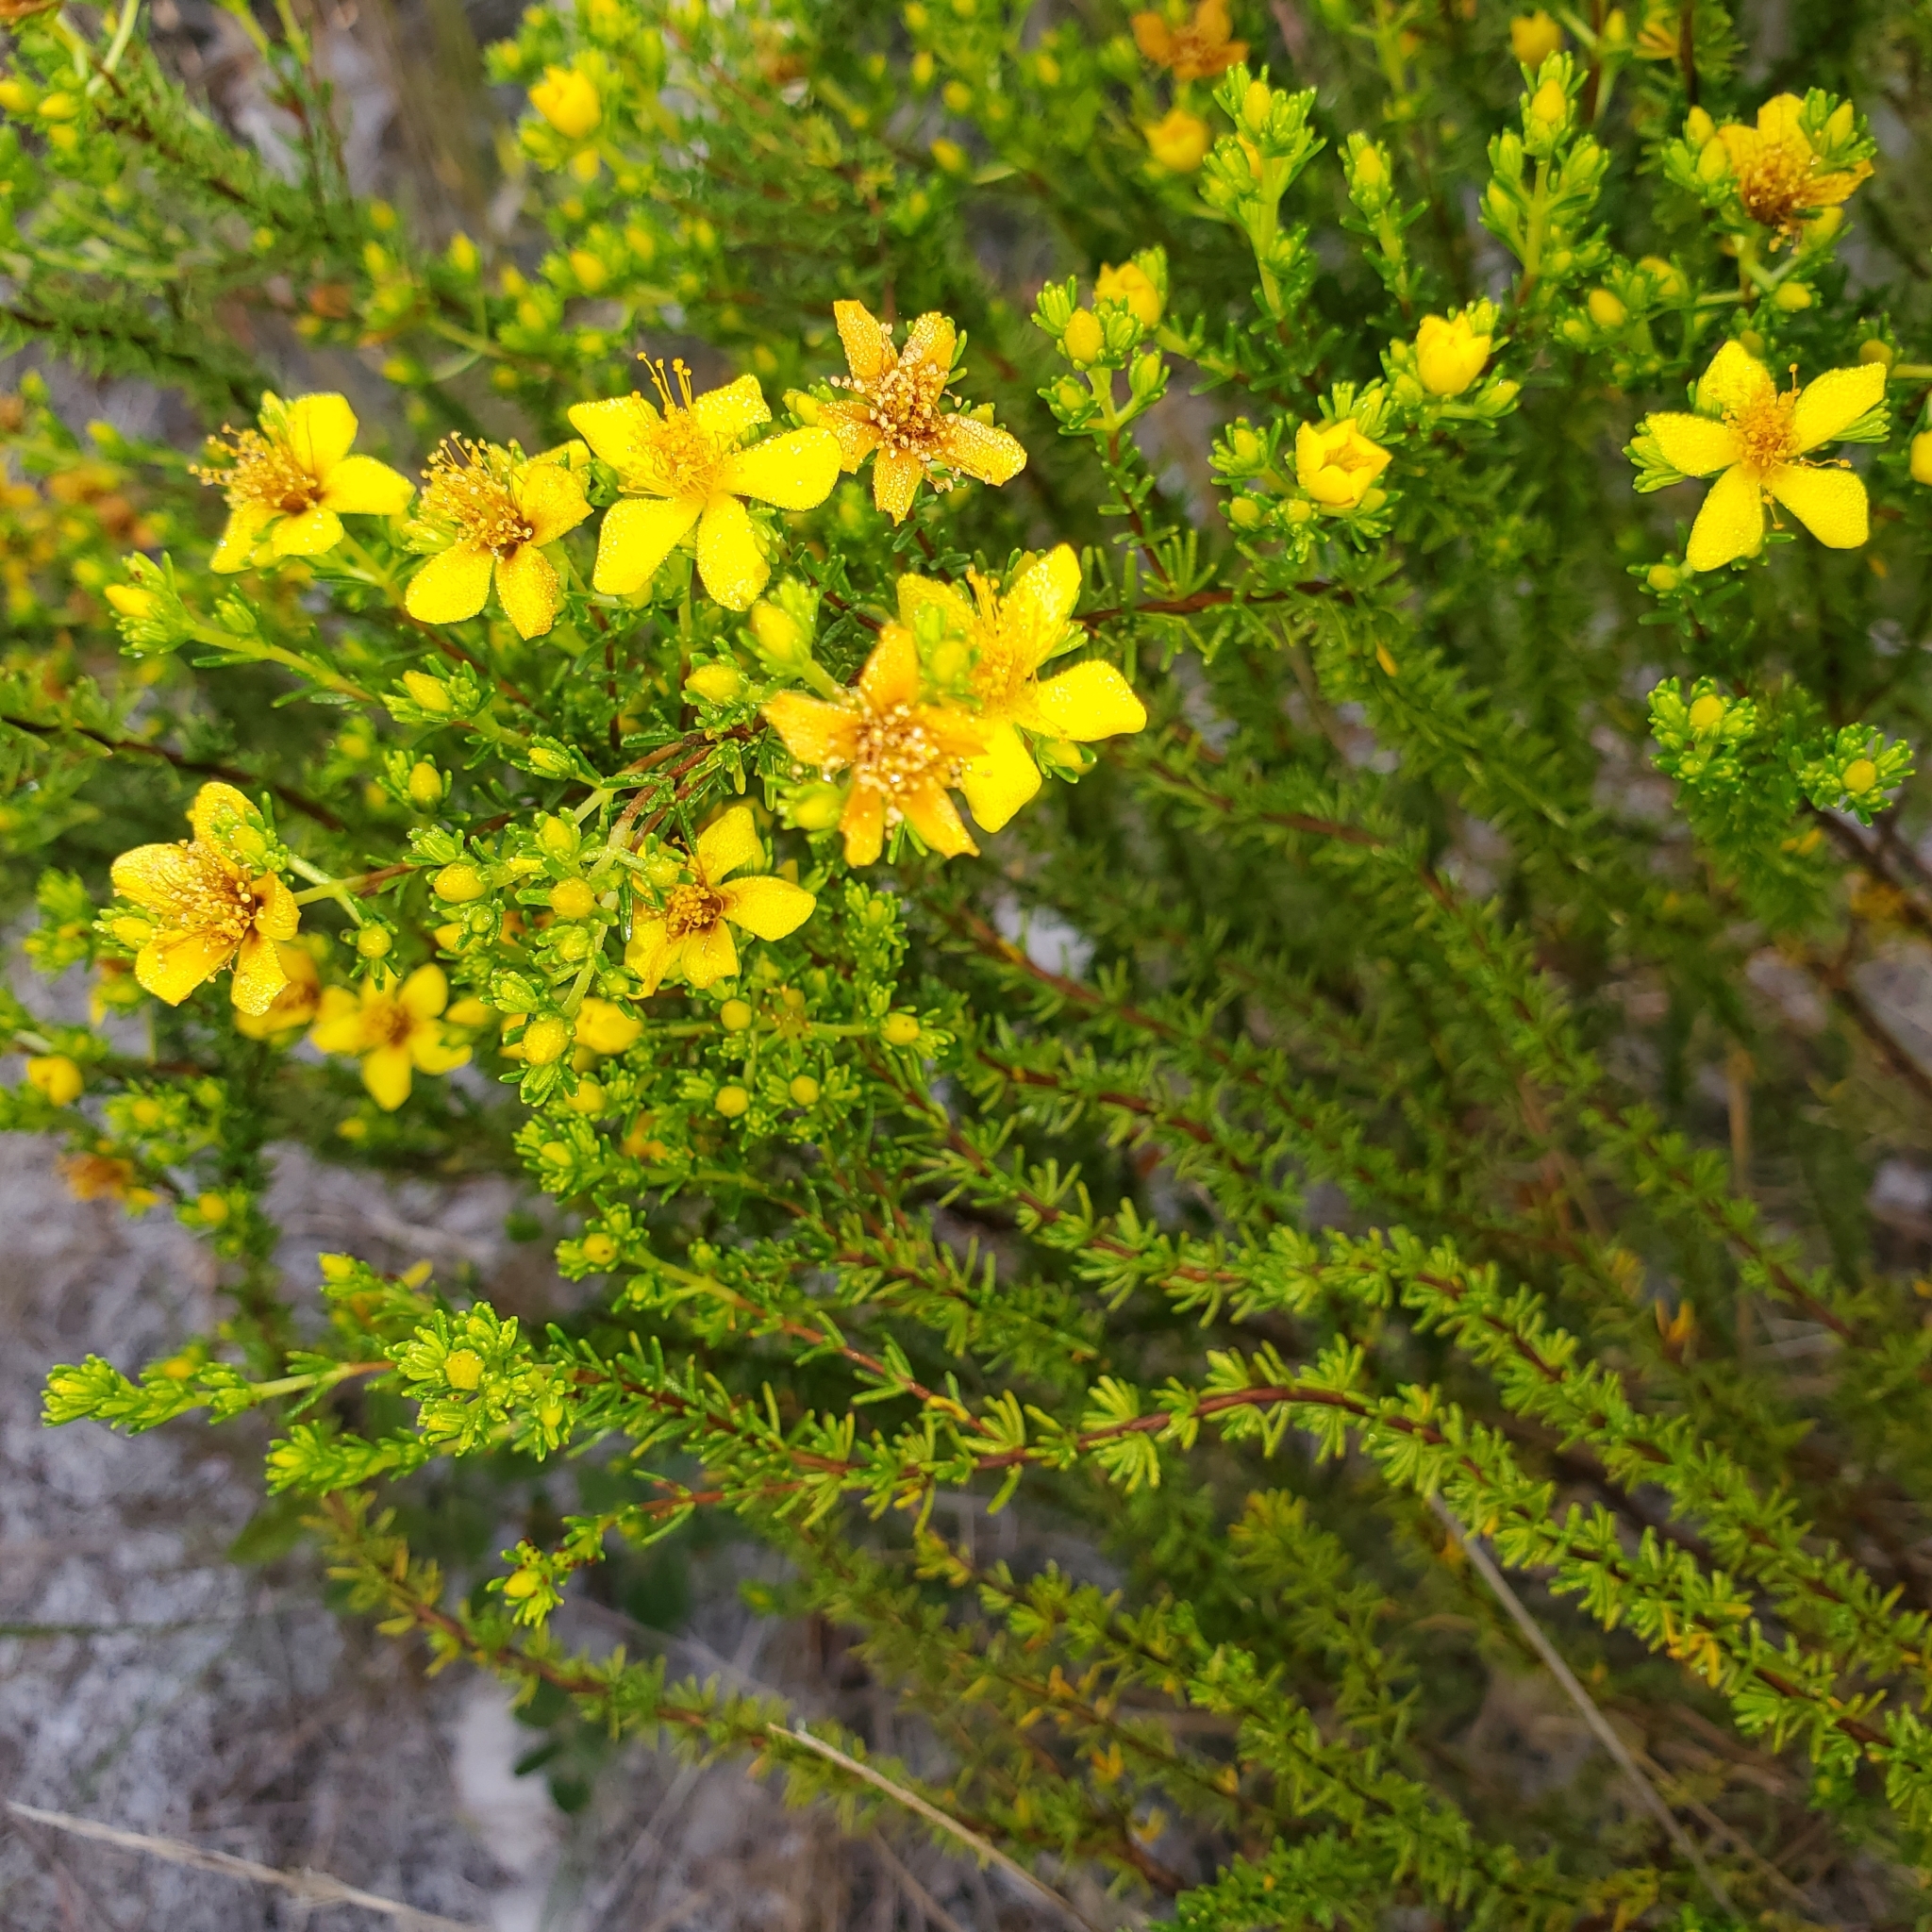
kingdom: Plantae
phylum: Tracheophyta
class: Magnoliopsida
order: Malpighiales
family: Hypericaceae
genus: Hypericum
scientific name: Hypericum tenuifolium
